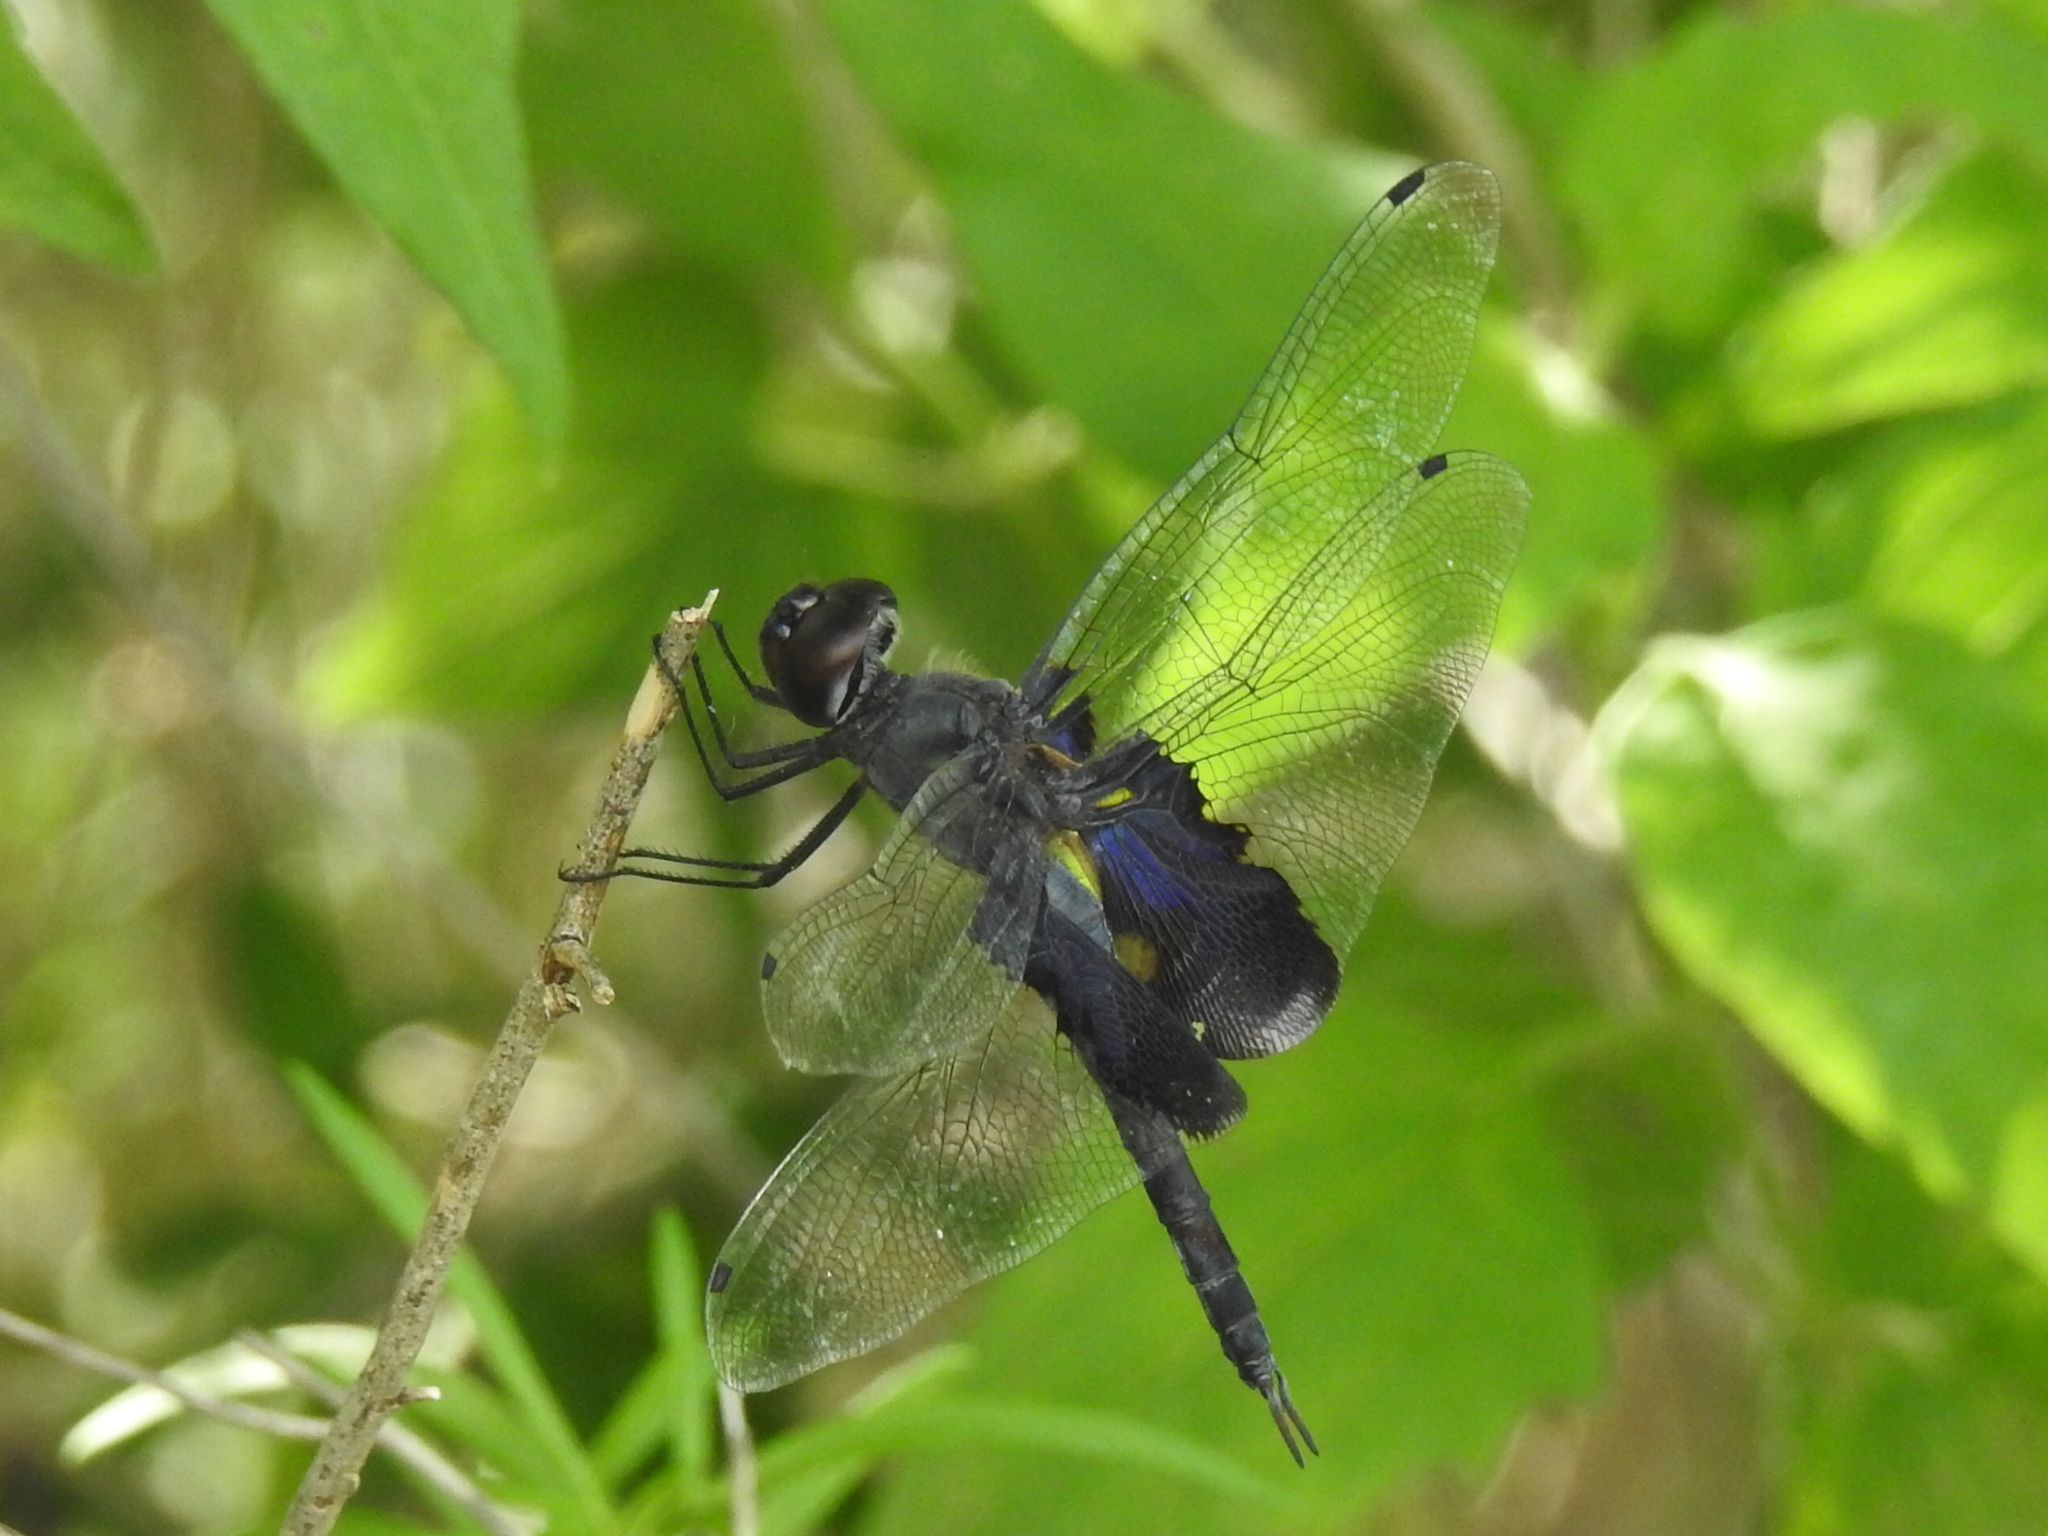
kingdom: Animalia
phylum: Arthropoda
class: Insecta
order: Odonata
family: Libellulidae
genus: Tramea
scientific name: Tramea lacerata
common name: Black saddlebags
